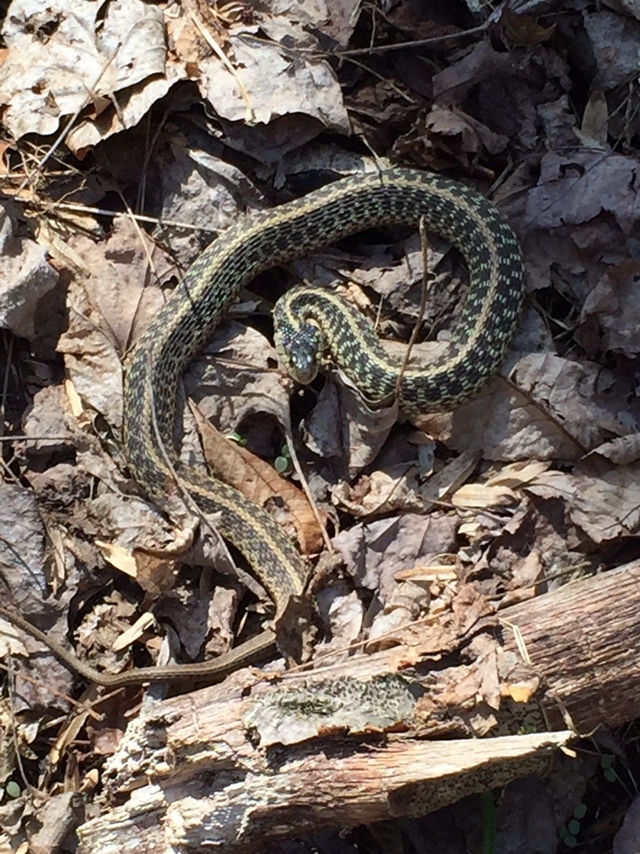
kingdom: Animalia
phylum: Chordata
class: Squamata
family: Colubridae
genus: Thamnophis
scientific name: Thamnophis sirtalis
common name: Common garter snake
